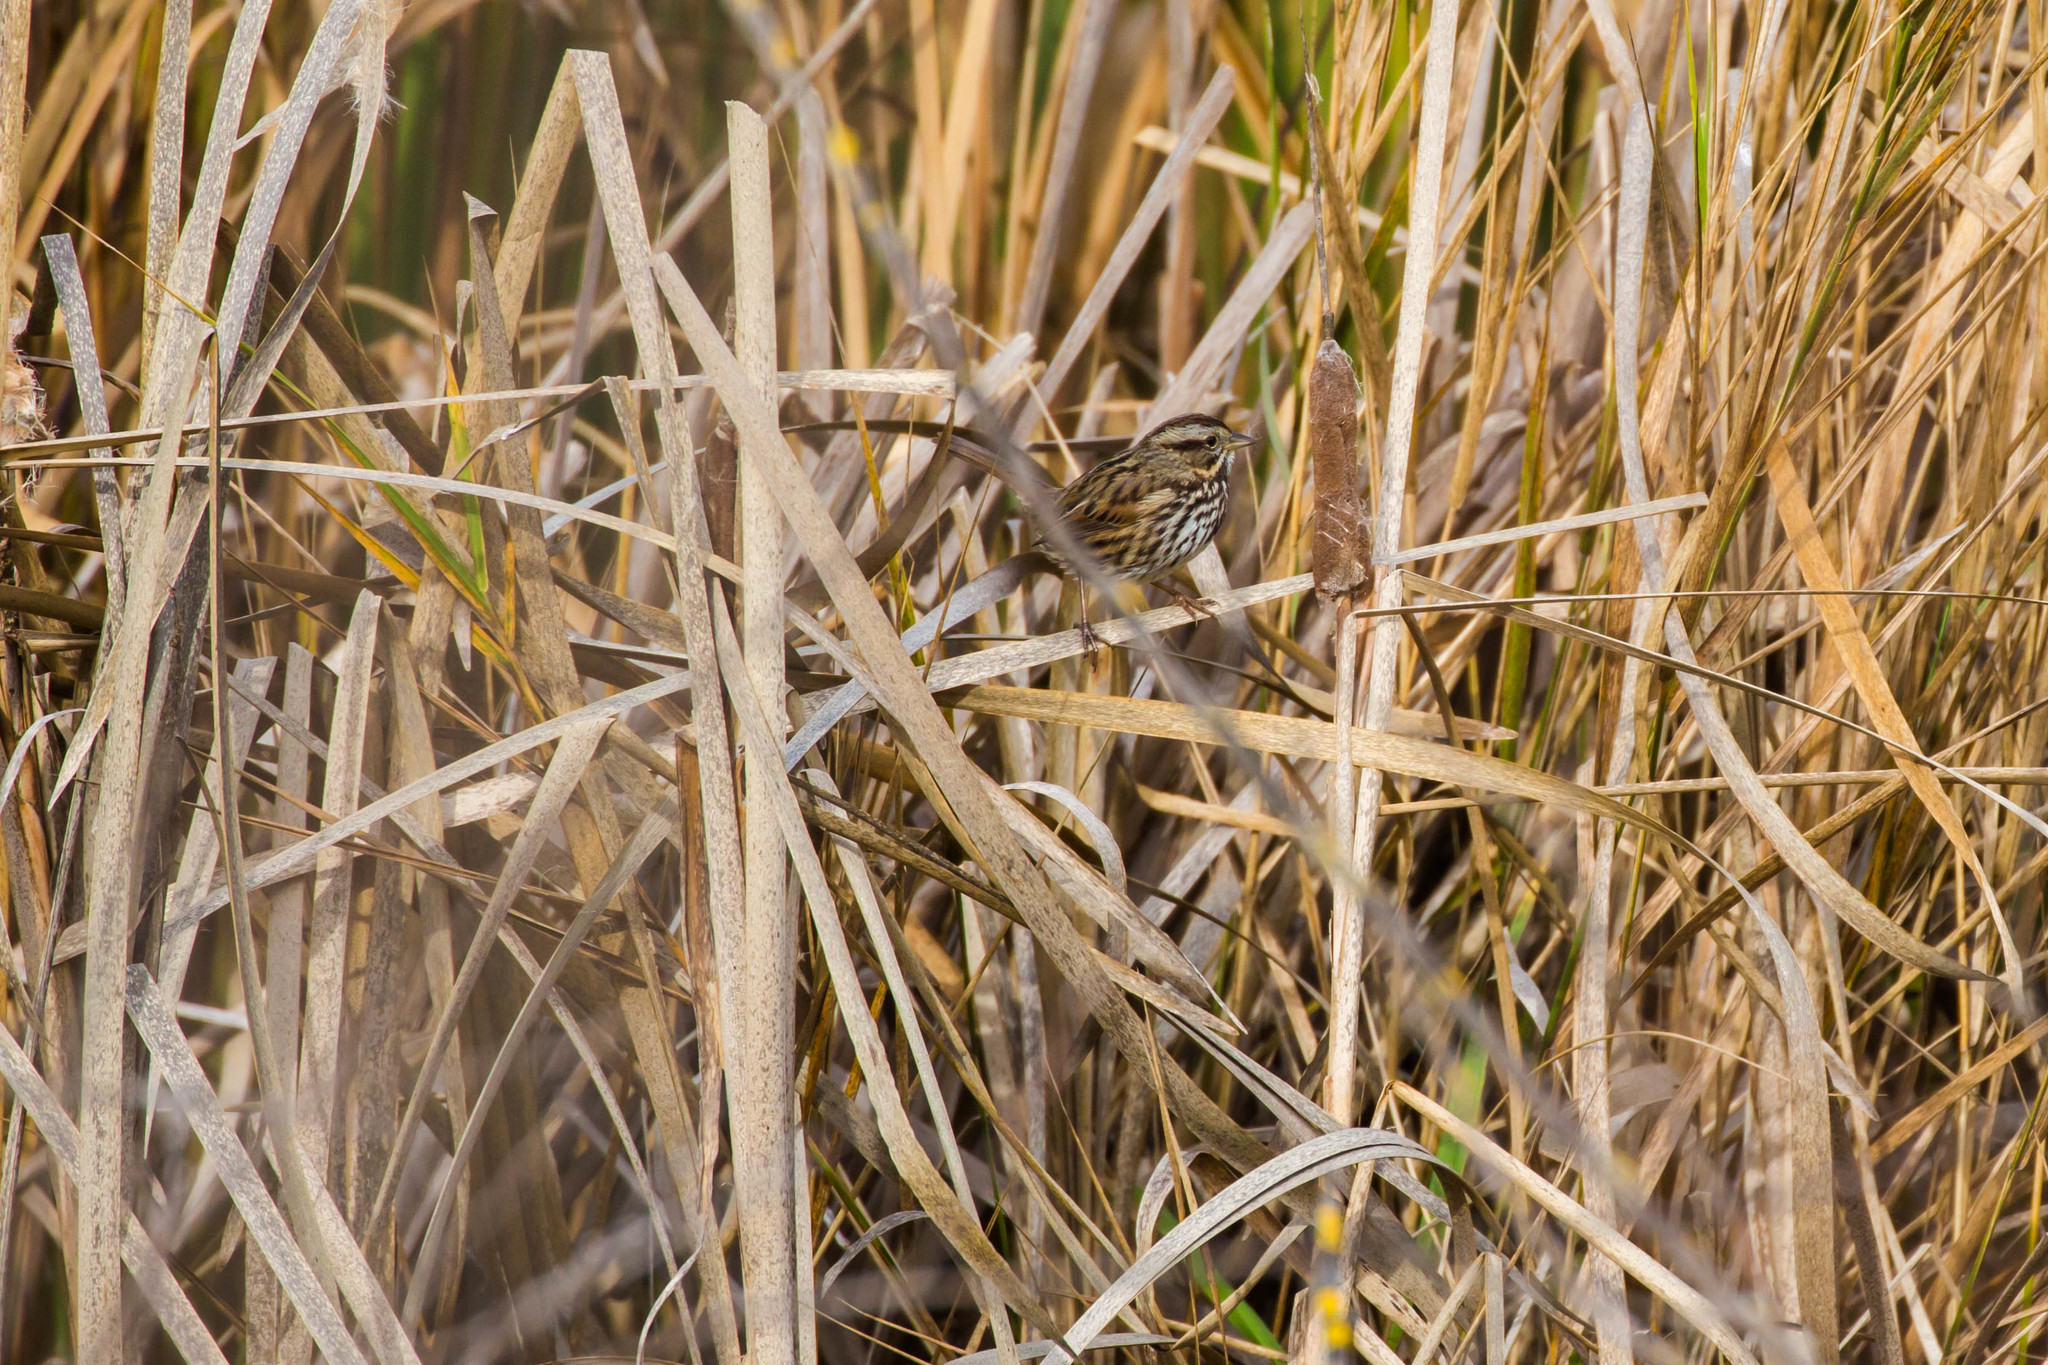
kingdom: Animalia
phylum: Chordata
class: Aves
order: Passeriformes
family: Passerellidae
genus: Melospiza
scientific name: Melospiza melodia
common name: Song sparrow
